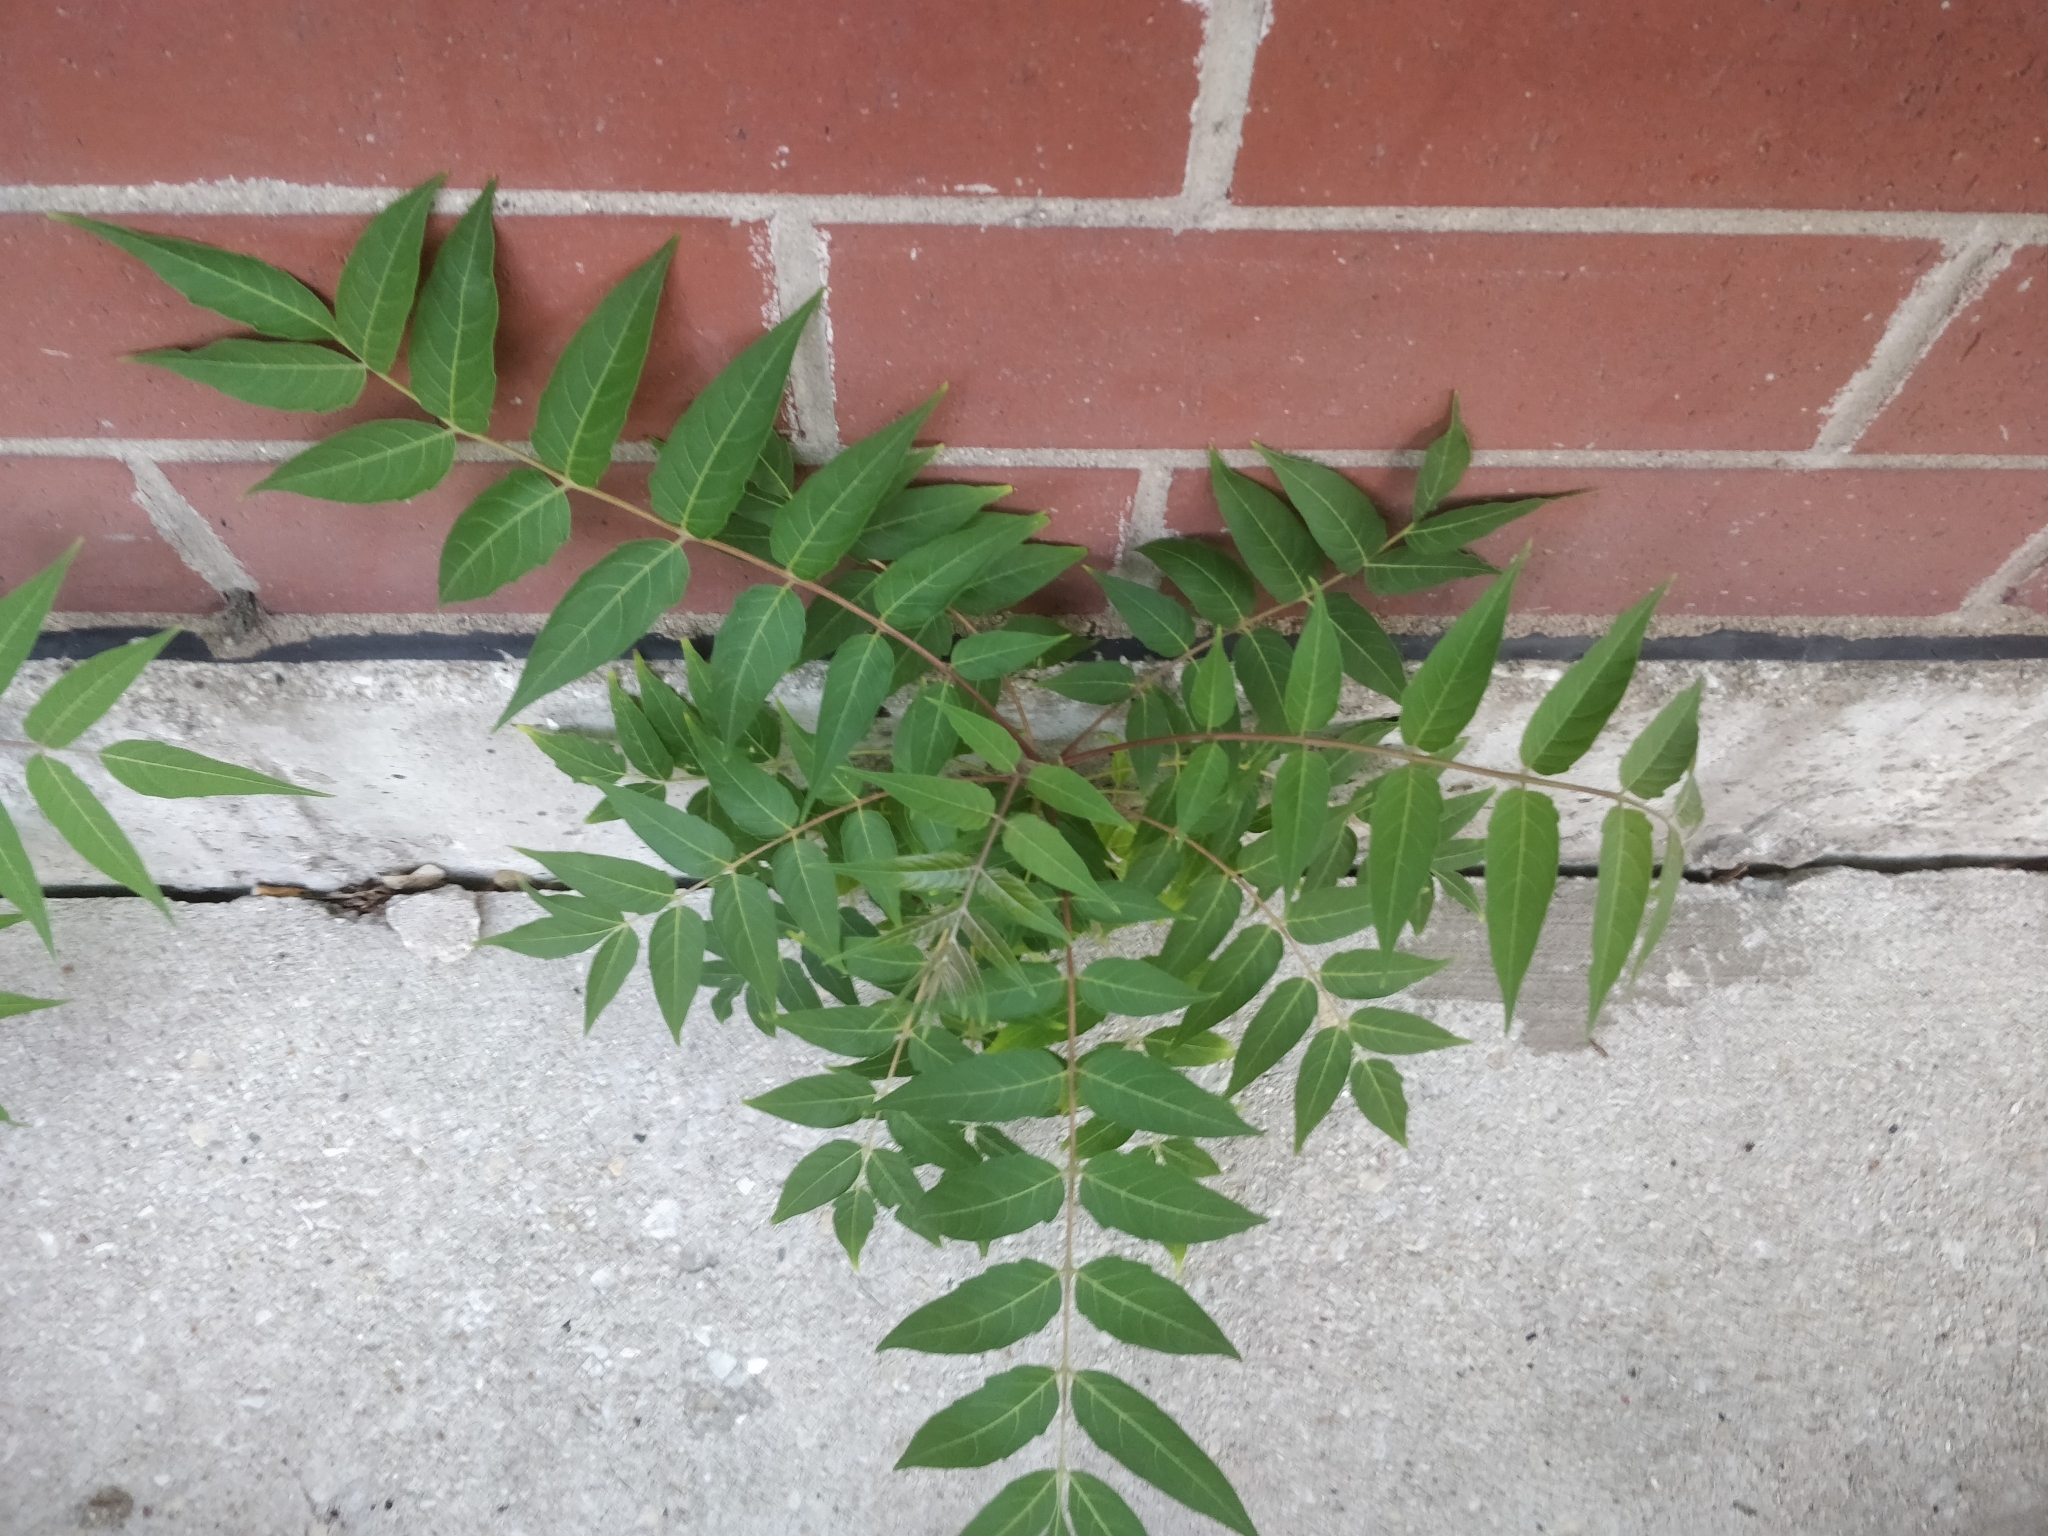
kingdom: Plantae
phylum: Tracheophyta
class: Magnoliopsida
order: Sapindales
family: Simaroubaceae
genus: Ailanthus
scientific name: Ailanthus altissima
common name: Tree-of-heaven
